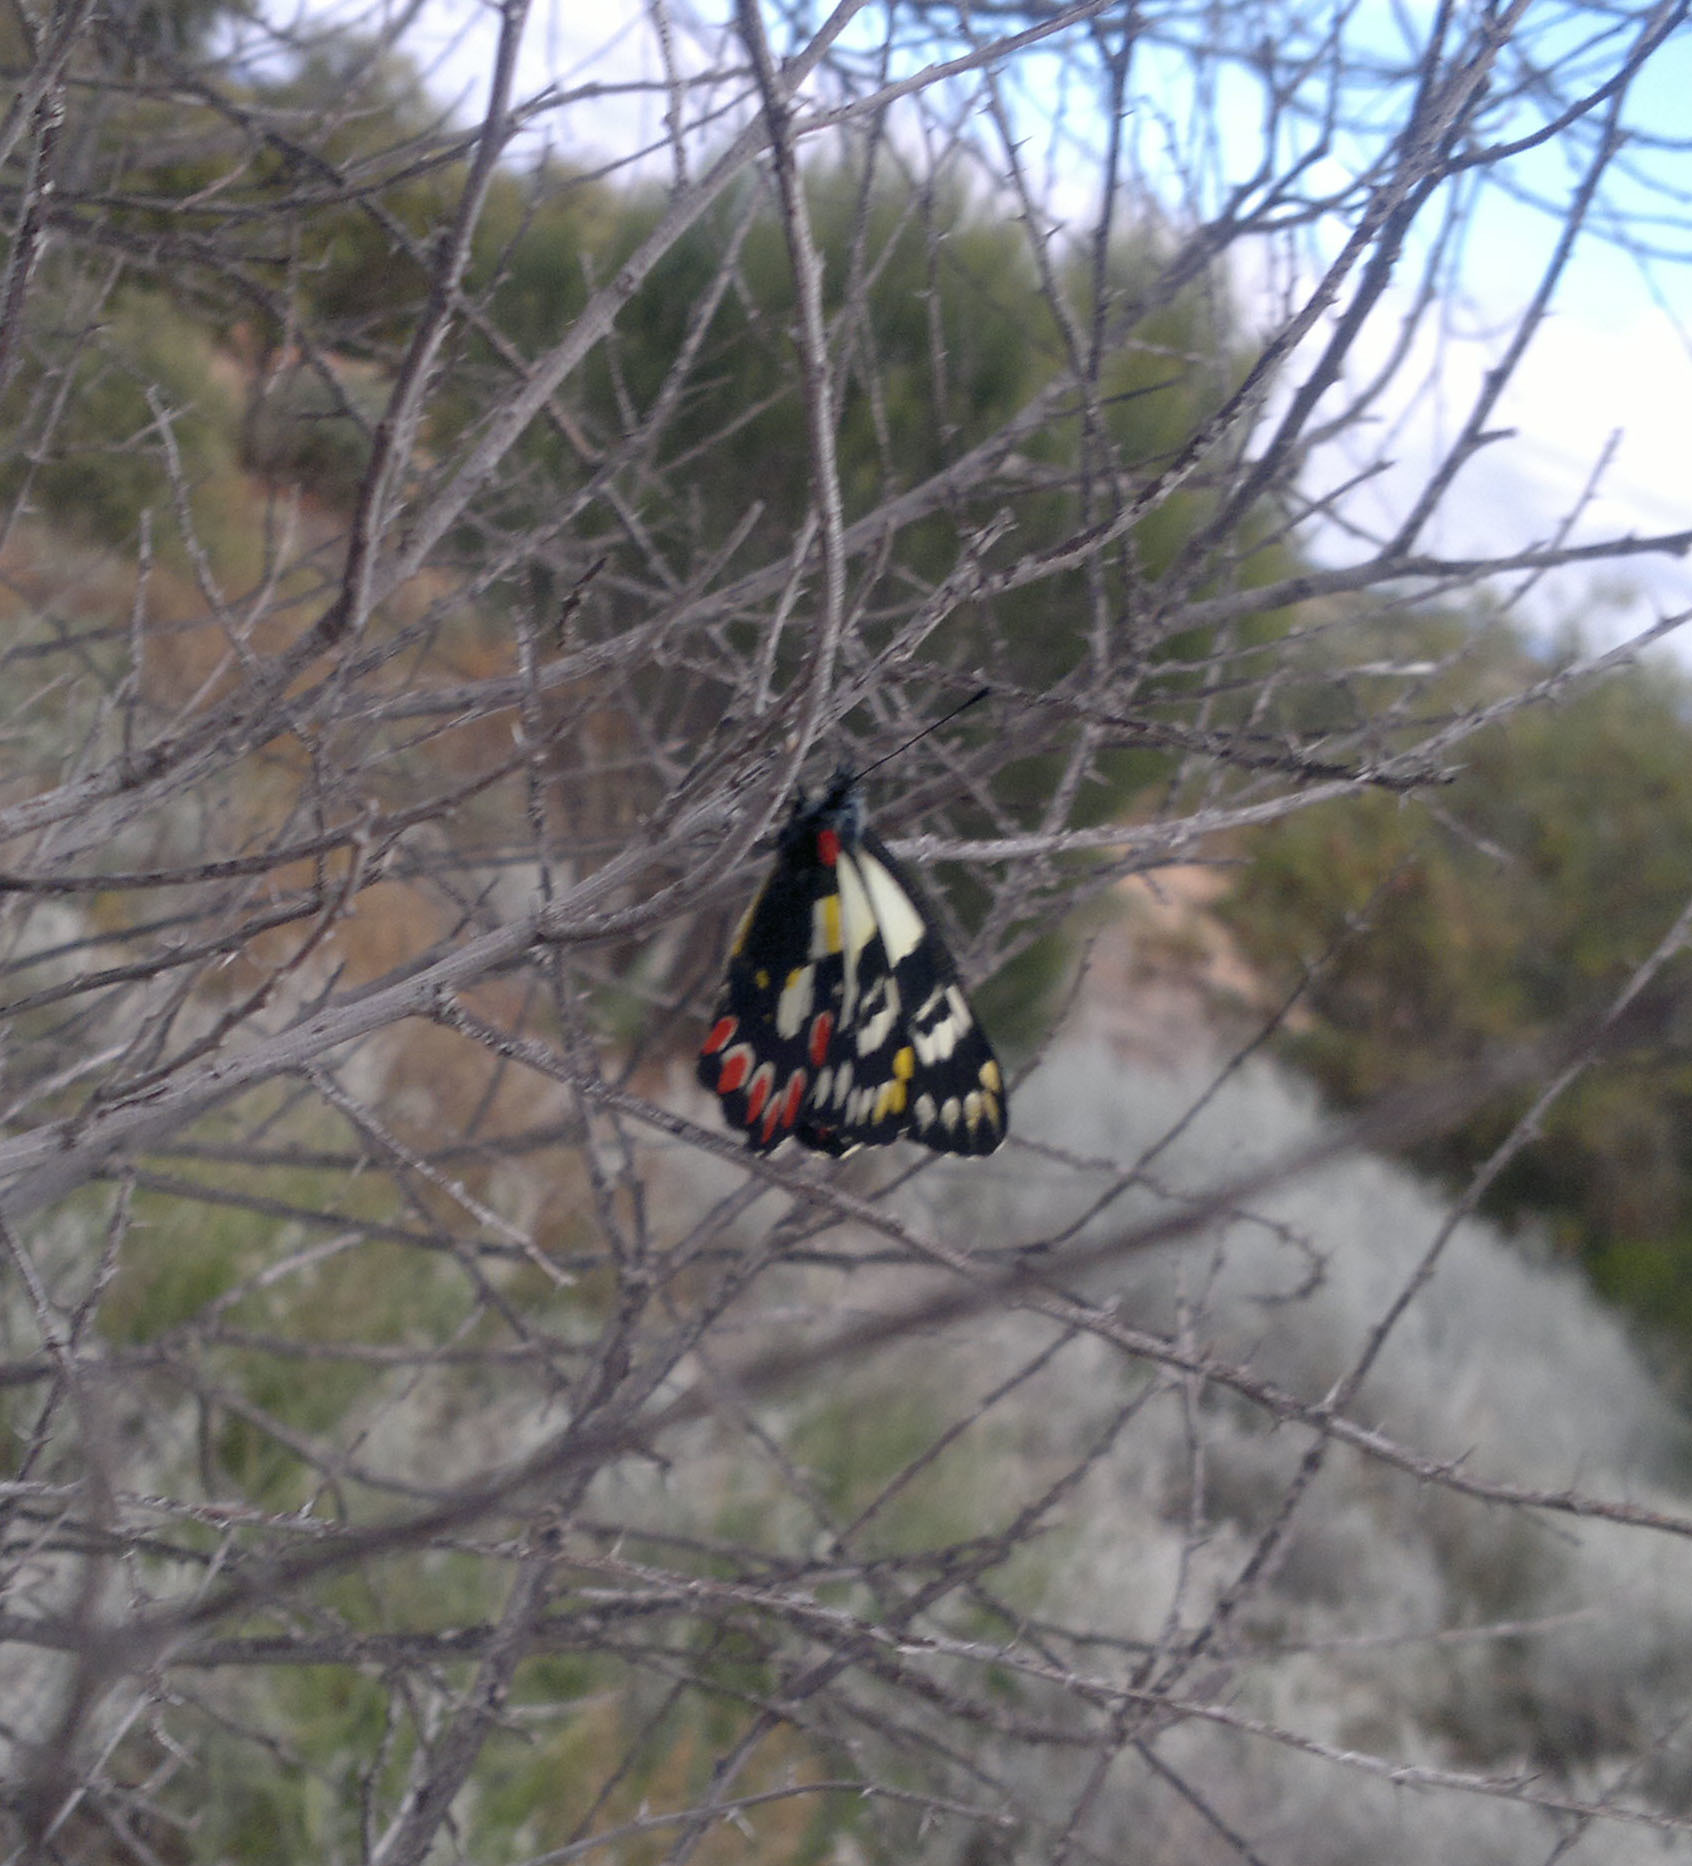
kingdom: Animalia
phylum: Arthropoda
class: Insecta
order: Lepidoptera
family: Pieridae
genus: Delias
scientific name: Delias aganippe
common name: Red-spotted jezebel
